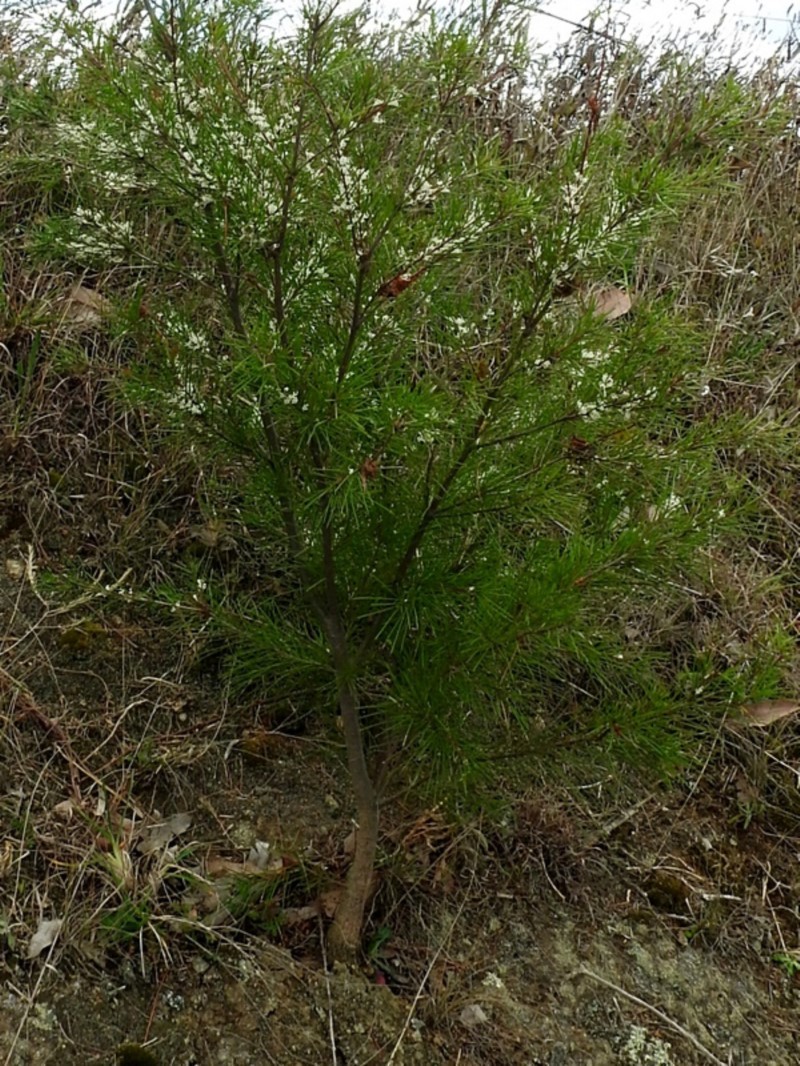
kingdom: Plantae
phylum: Tracheophyta
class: Magnoliopsida
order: Proteales
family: Proteaceae
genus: Hakea
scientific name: Hakea microcarpa
